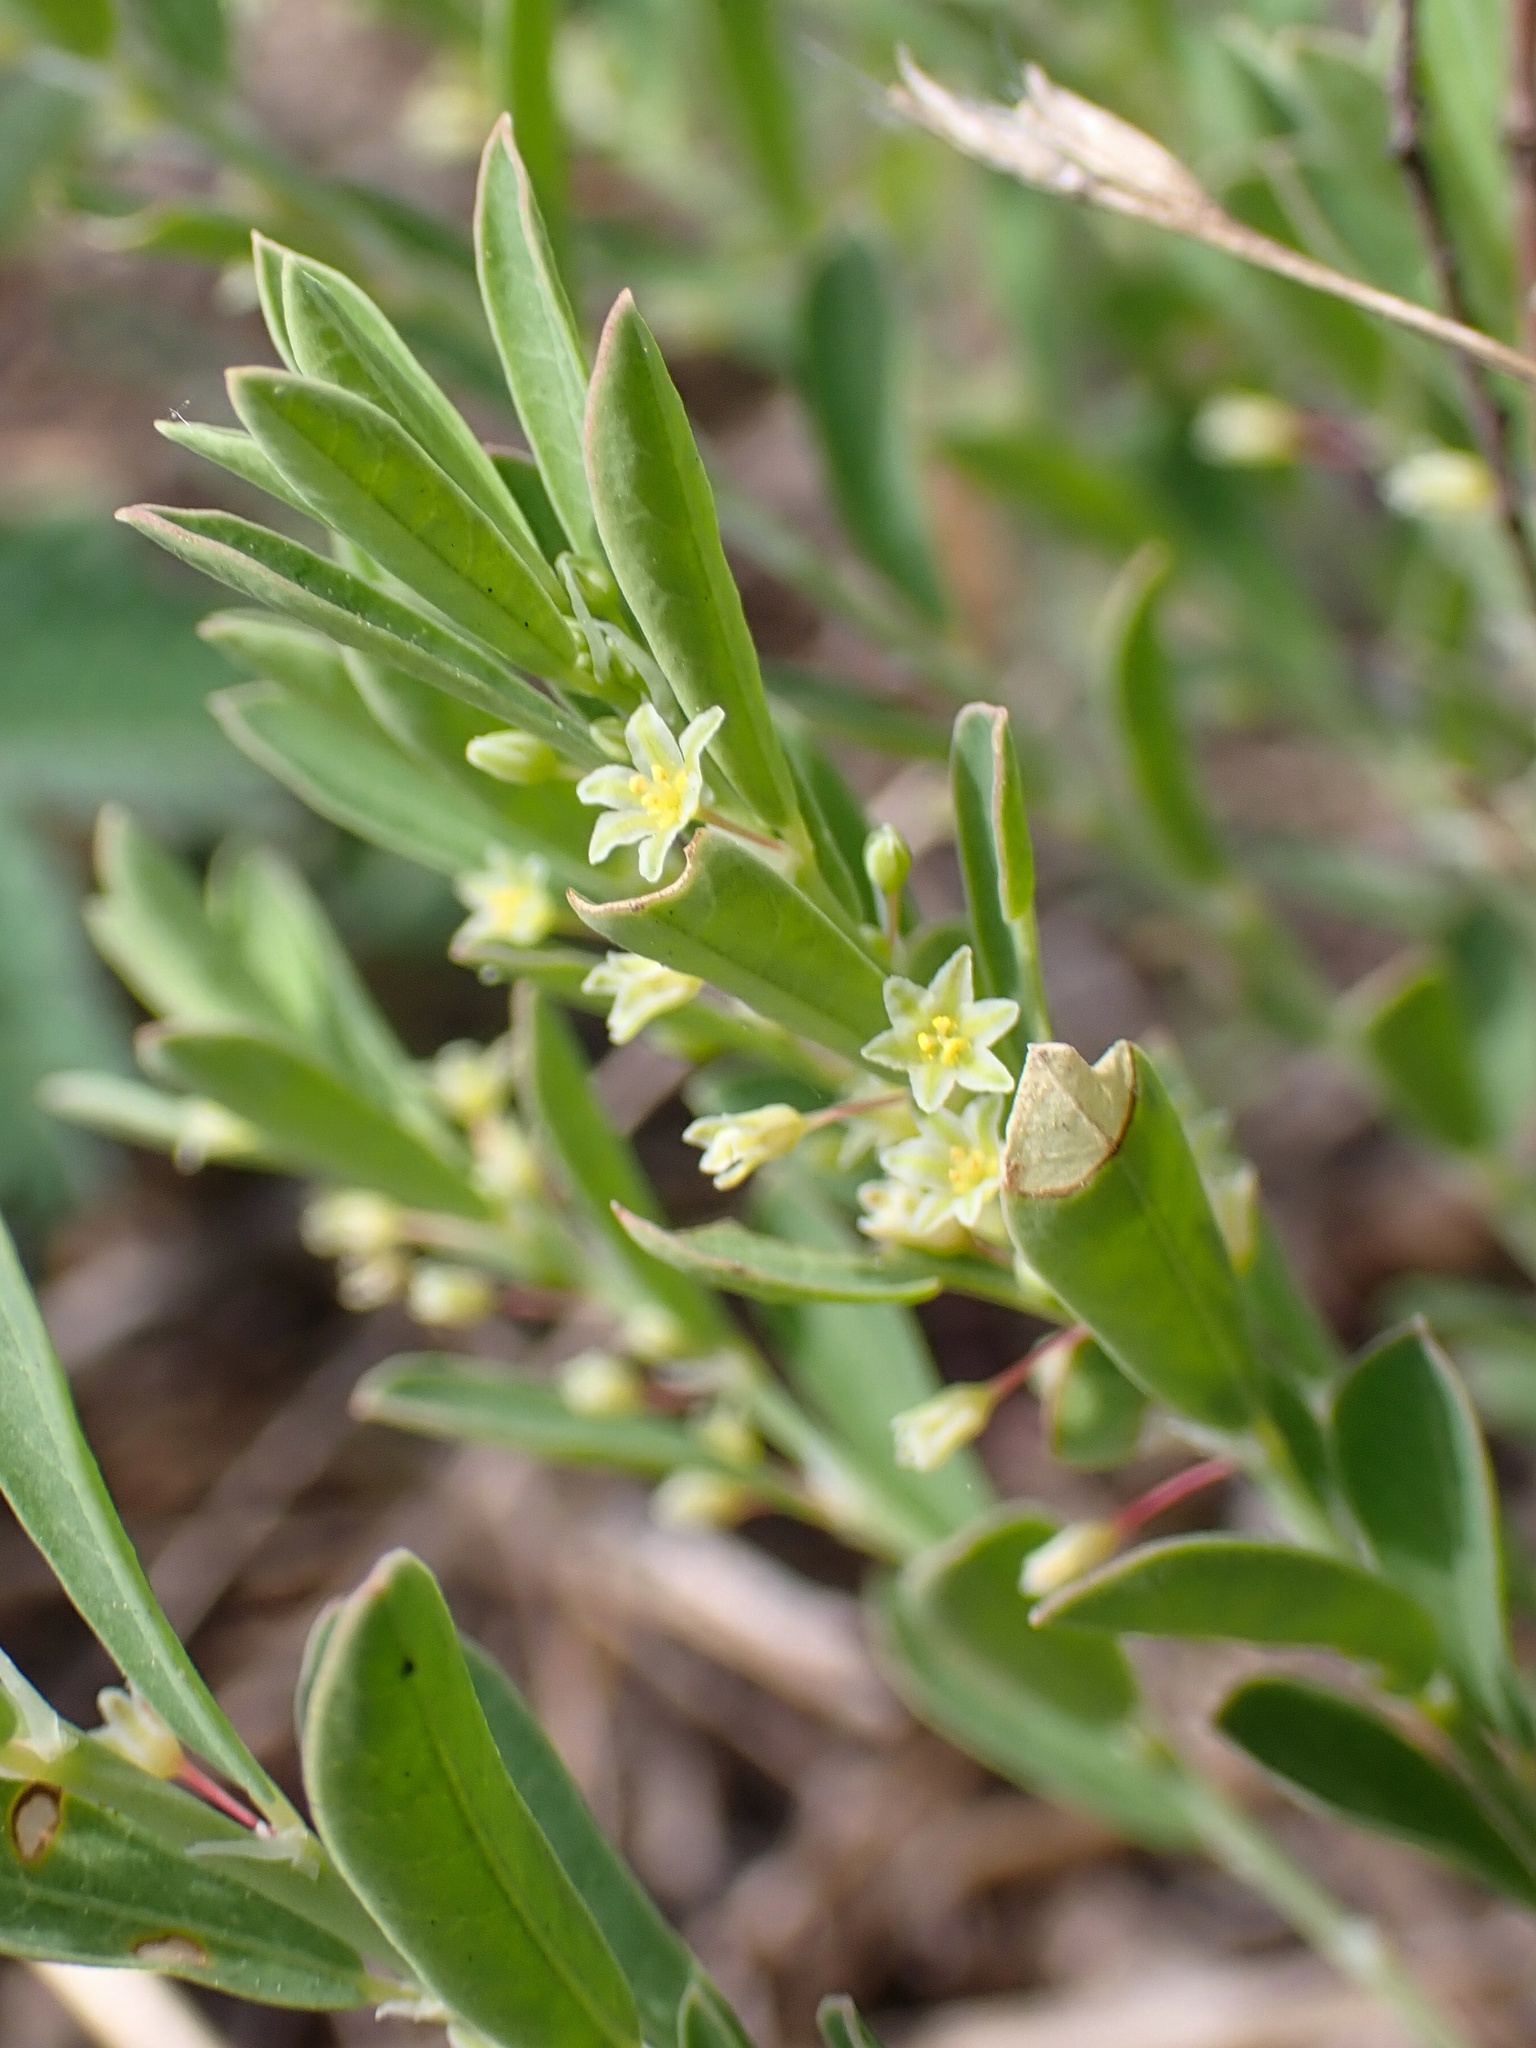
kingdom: Plantae
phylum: Tracheophyta
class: Magnoliopsida
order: Malpighiales
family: Phyllanthaceae
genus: Phyllanthus
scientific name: Phyllanthus polygonoides
